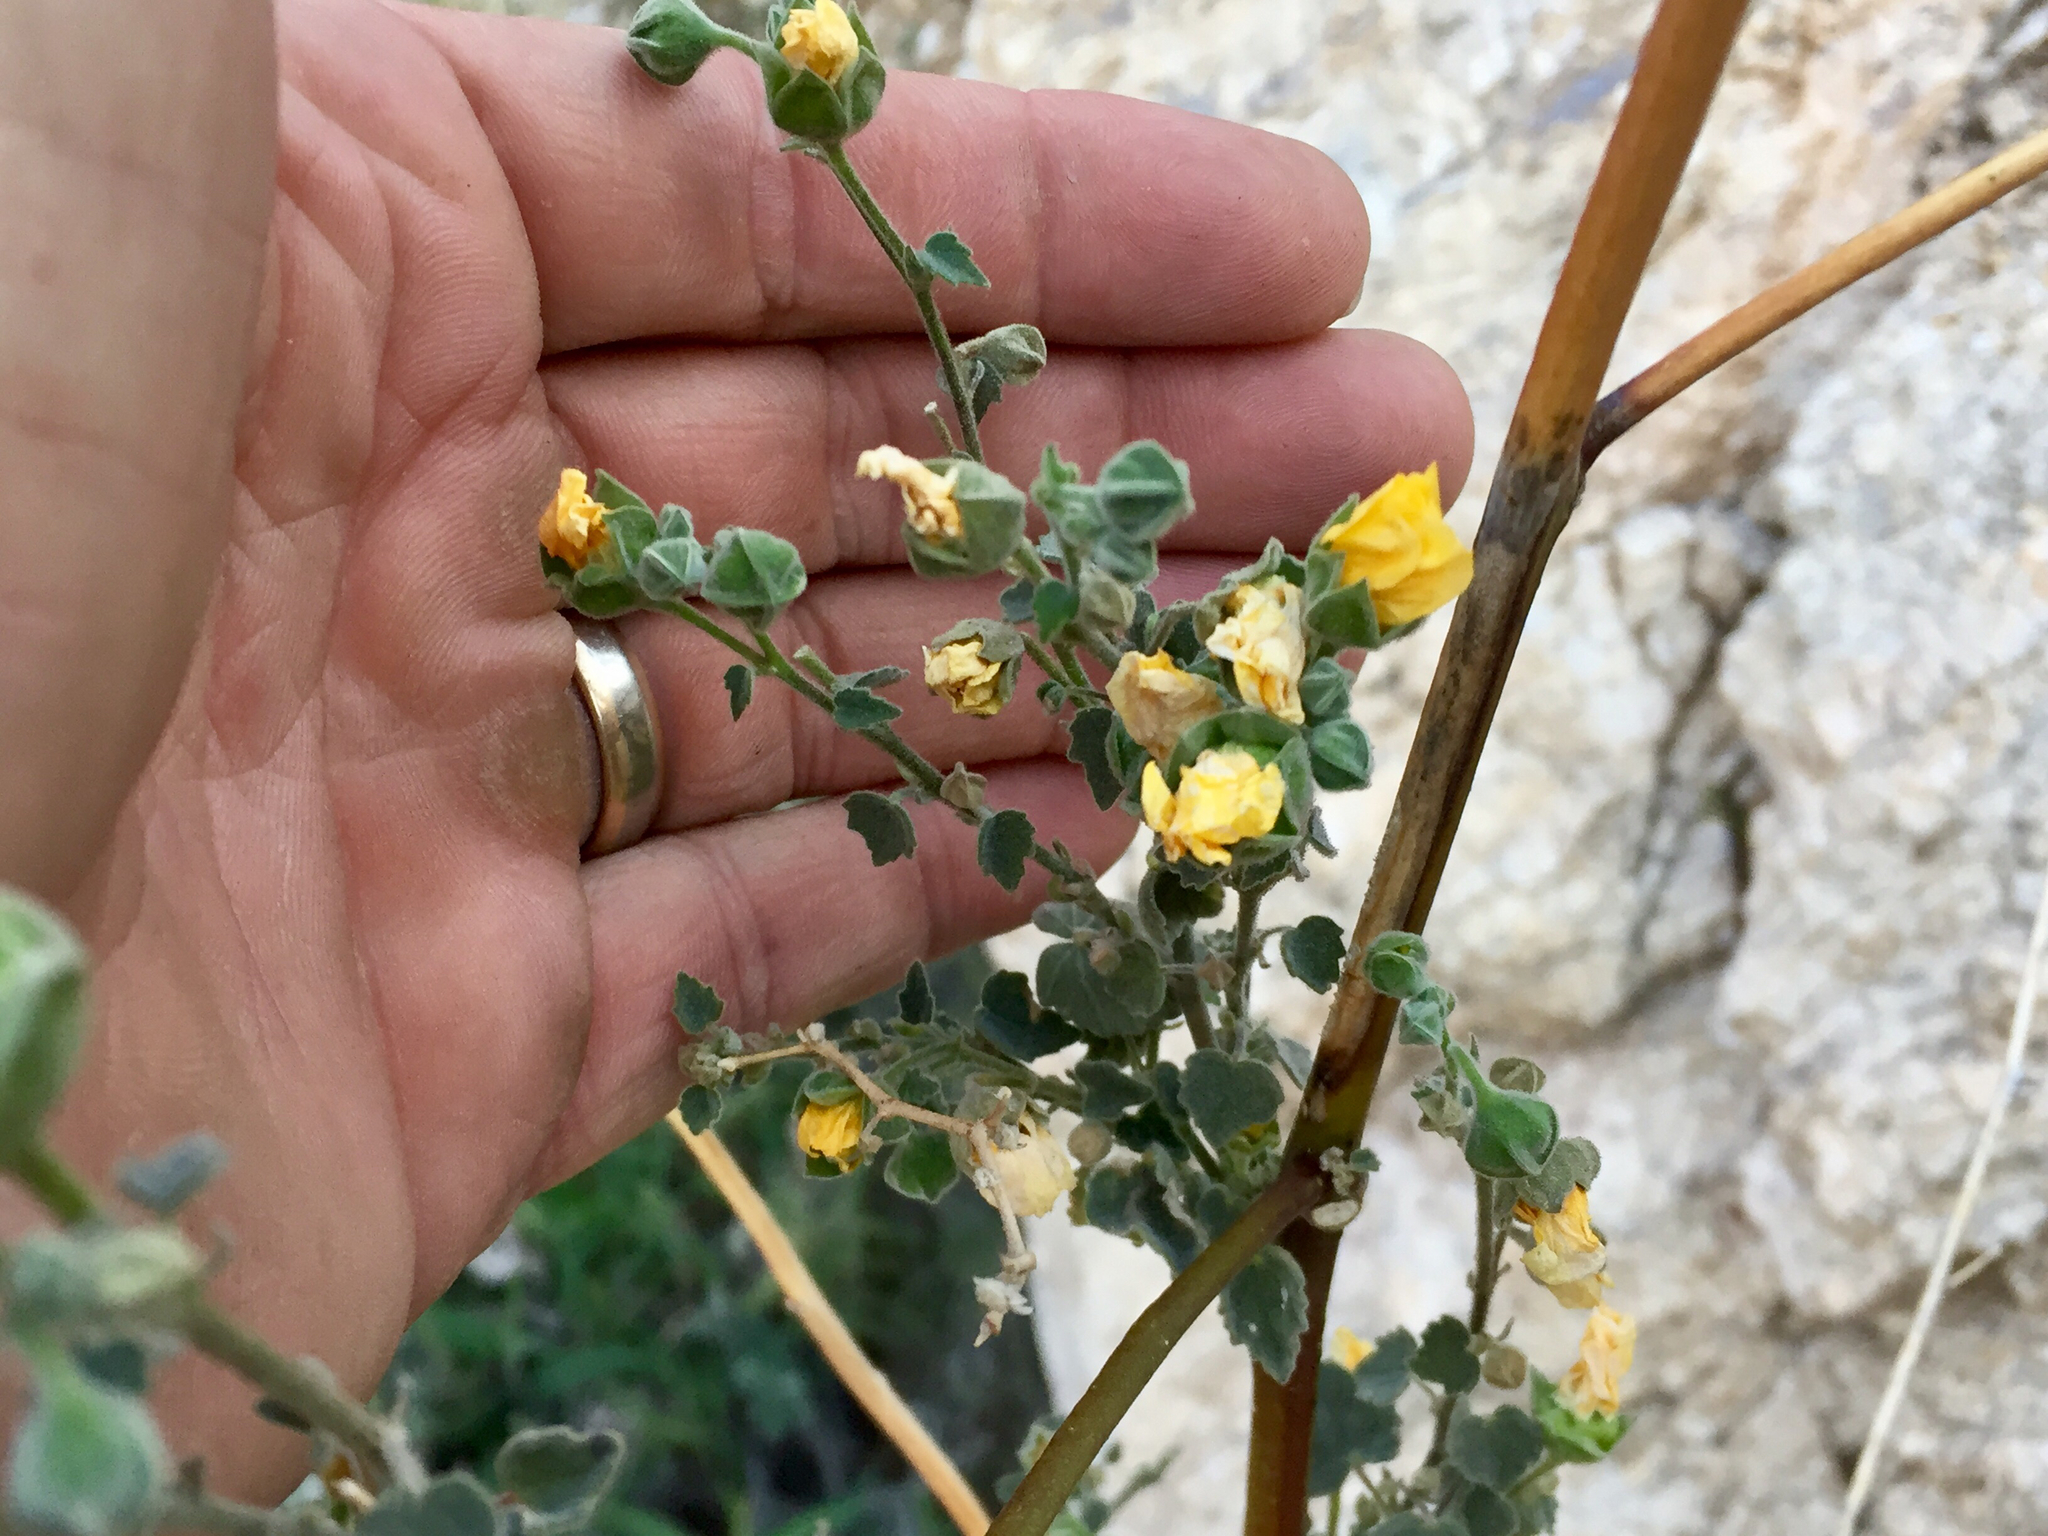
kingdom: Plantae
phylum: Tracheophyta
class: Magnoliopsida
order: Malvales
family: Malvaceae
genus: Abutilon
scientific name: Abutilon reventum
